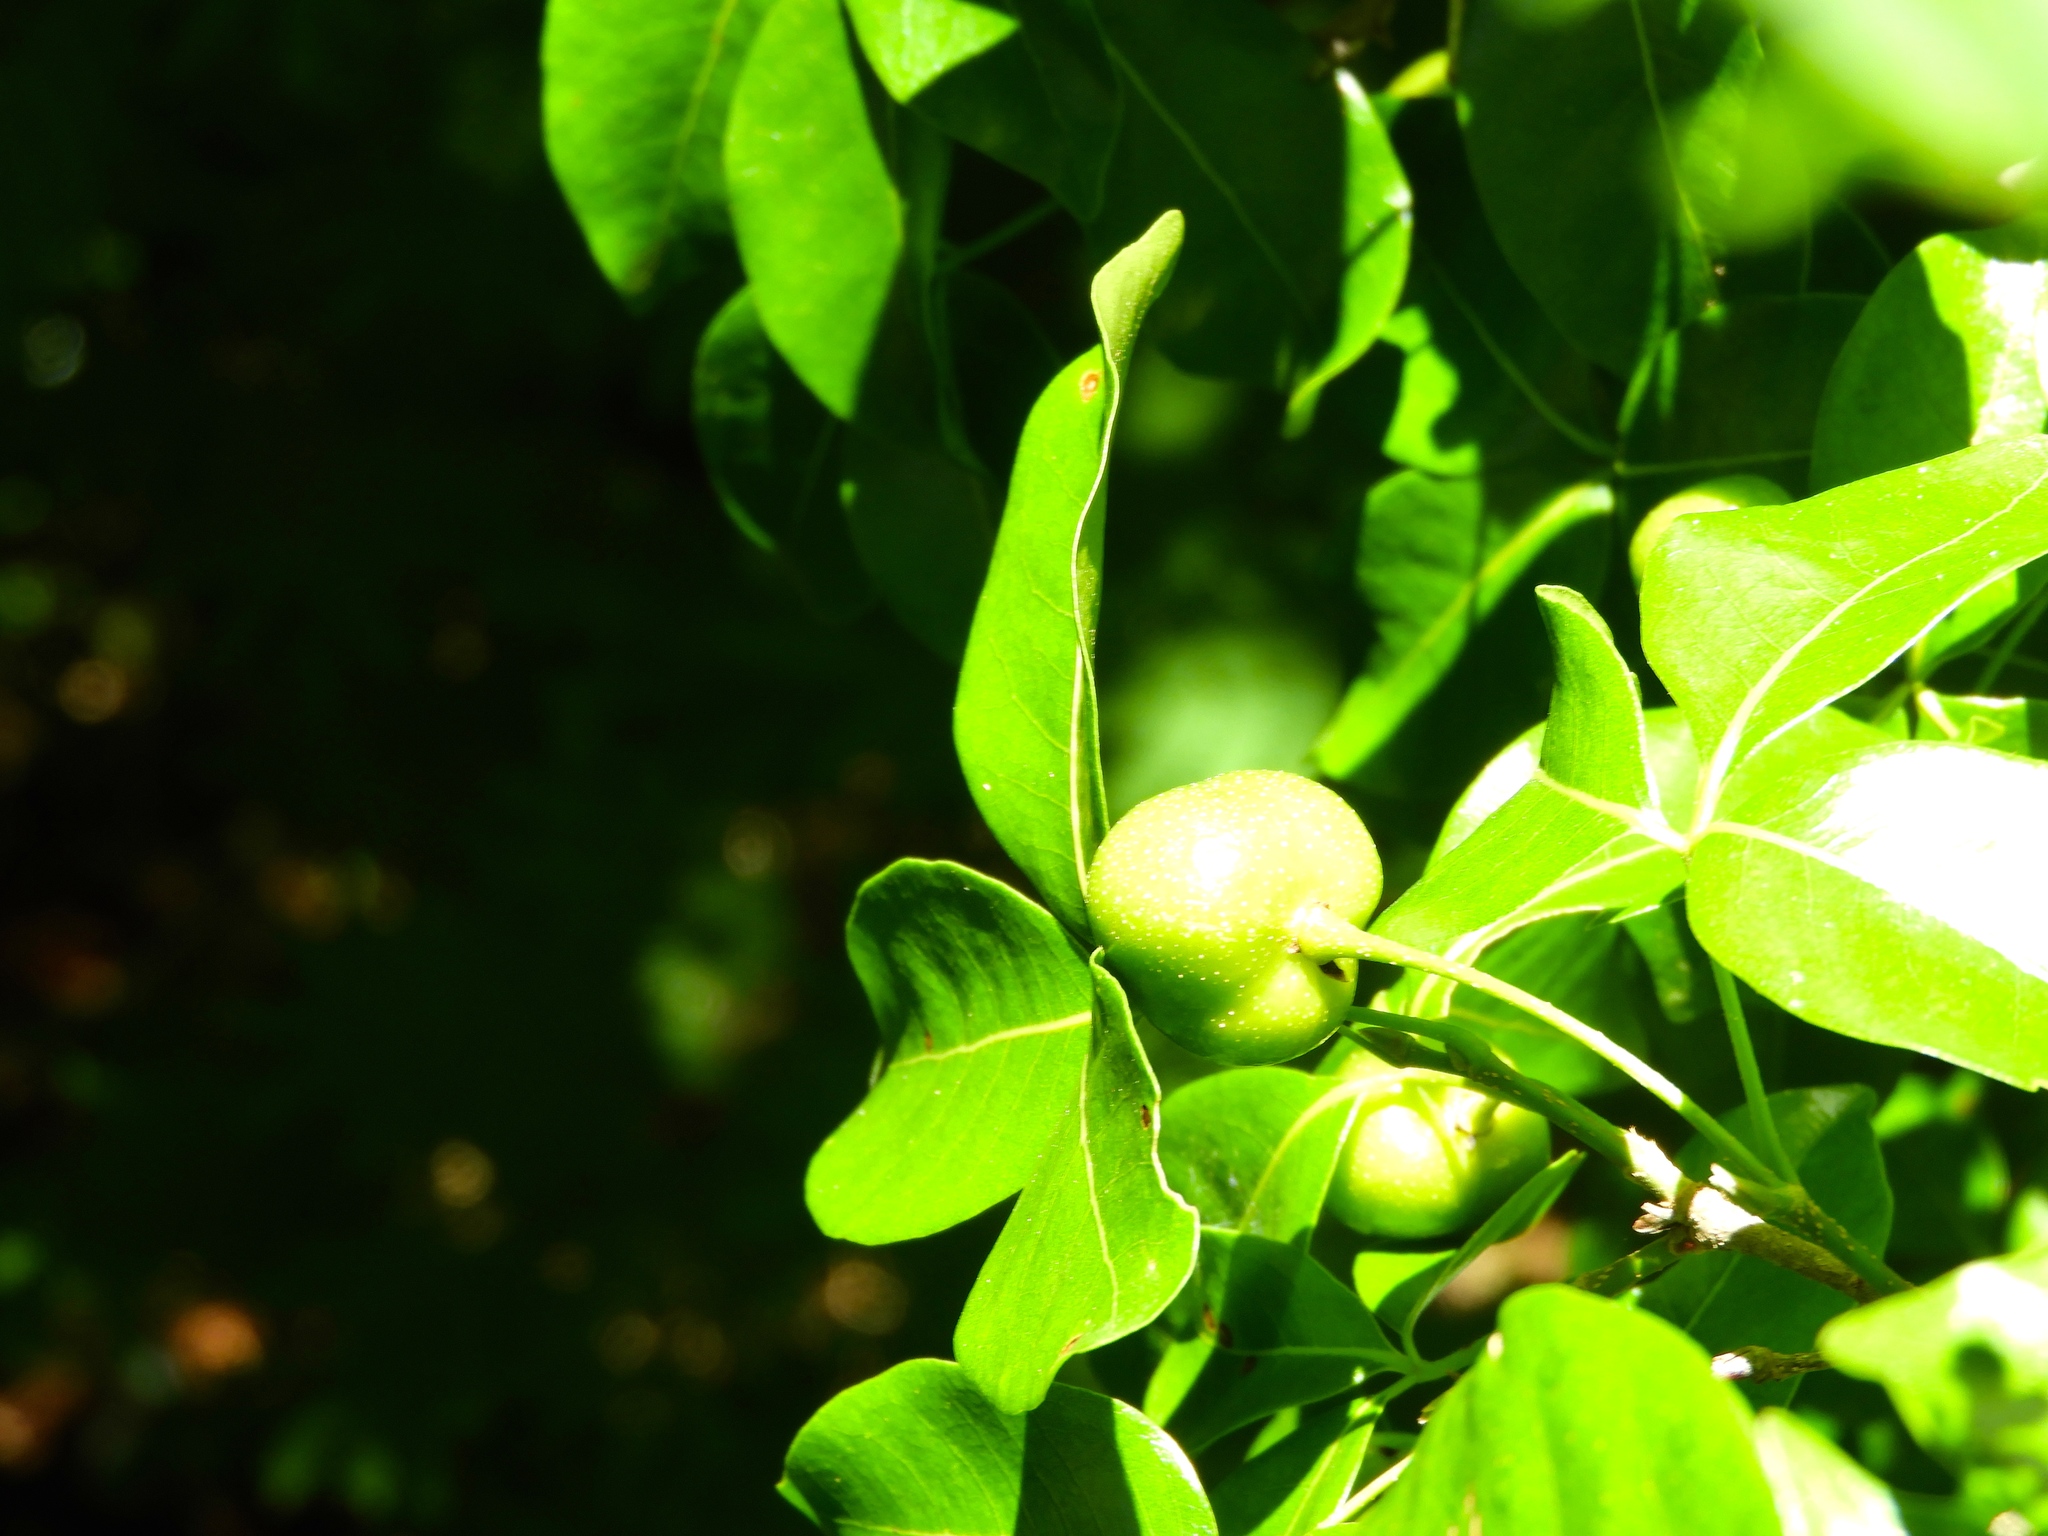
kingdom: Plantae
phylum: Tracheophyta
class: Magnoliopsida
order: Malpighiales
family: Picrodendraceae
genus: Piranhea
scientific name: Piranhea mexicana
